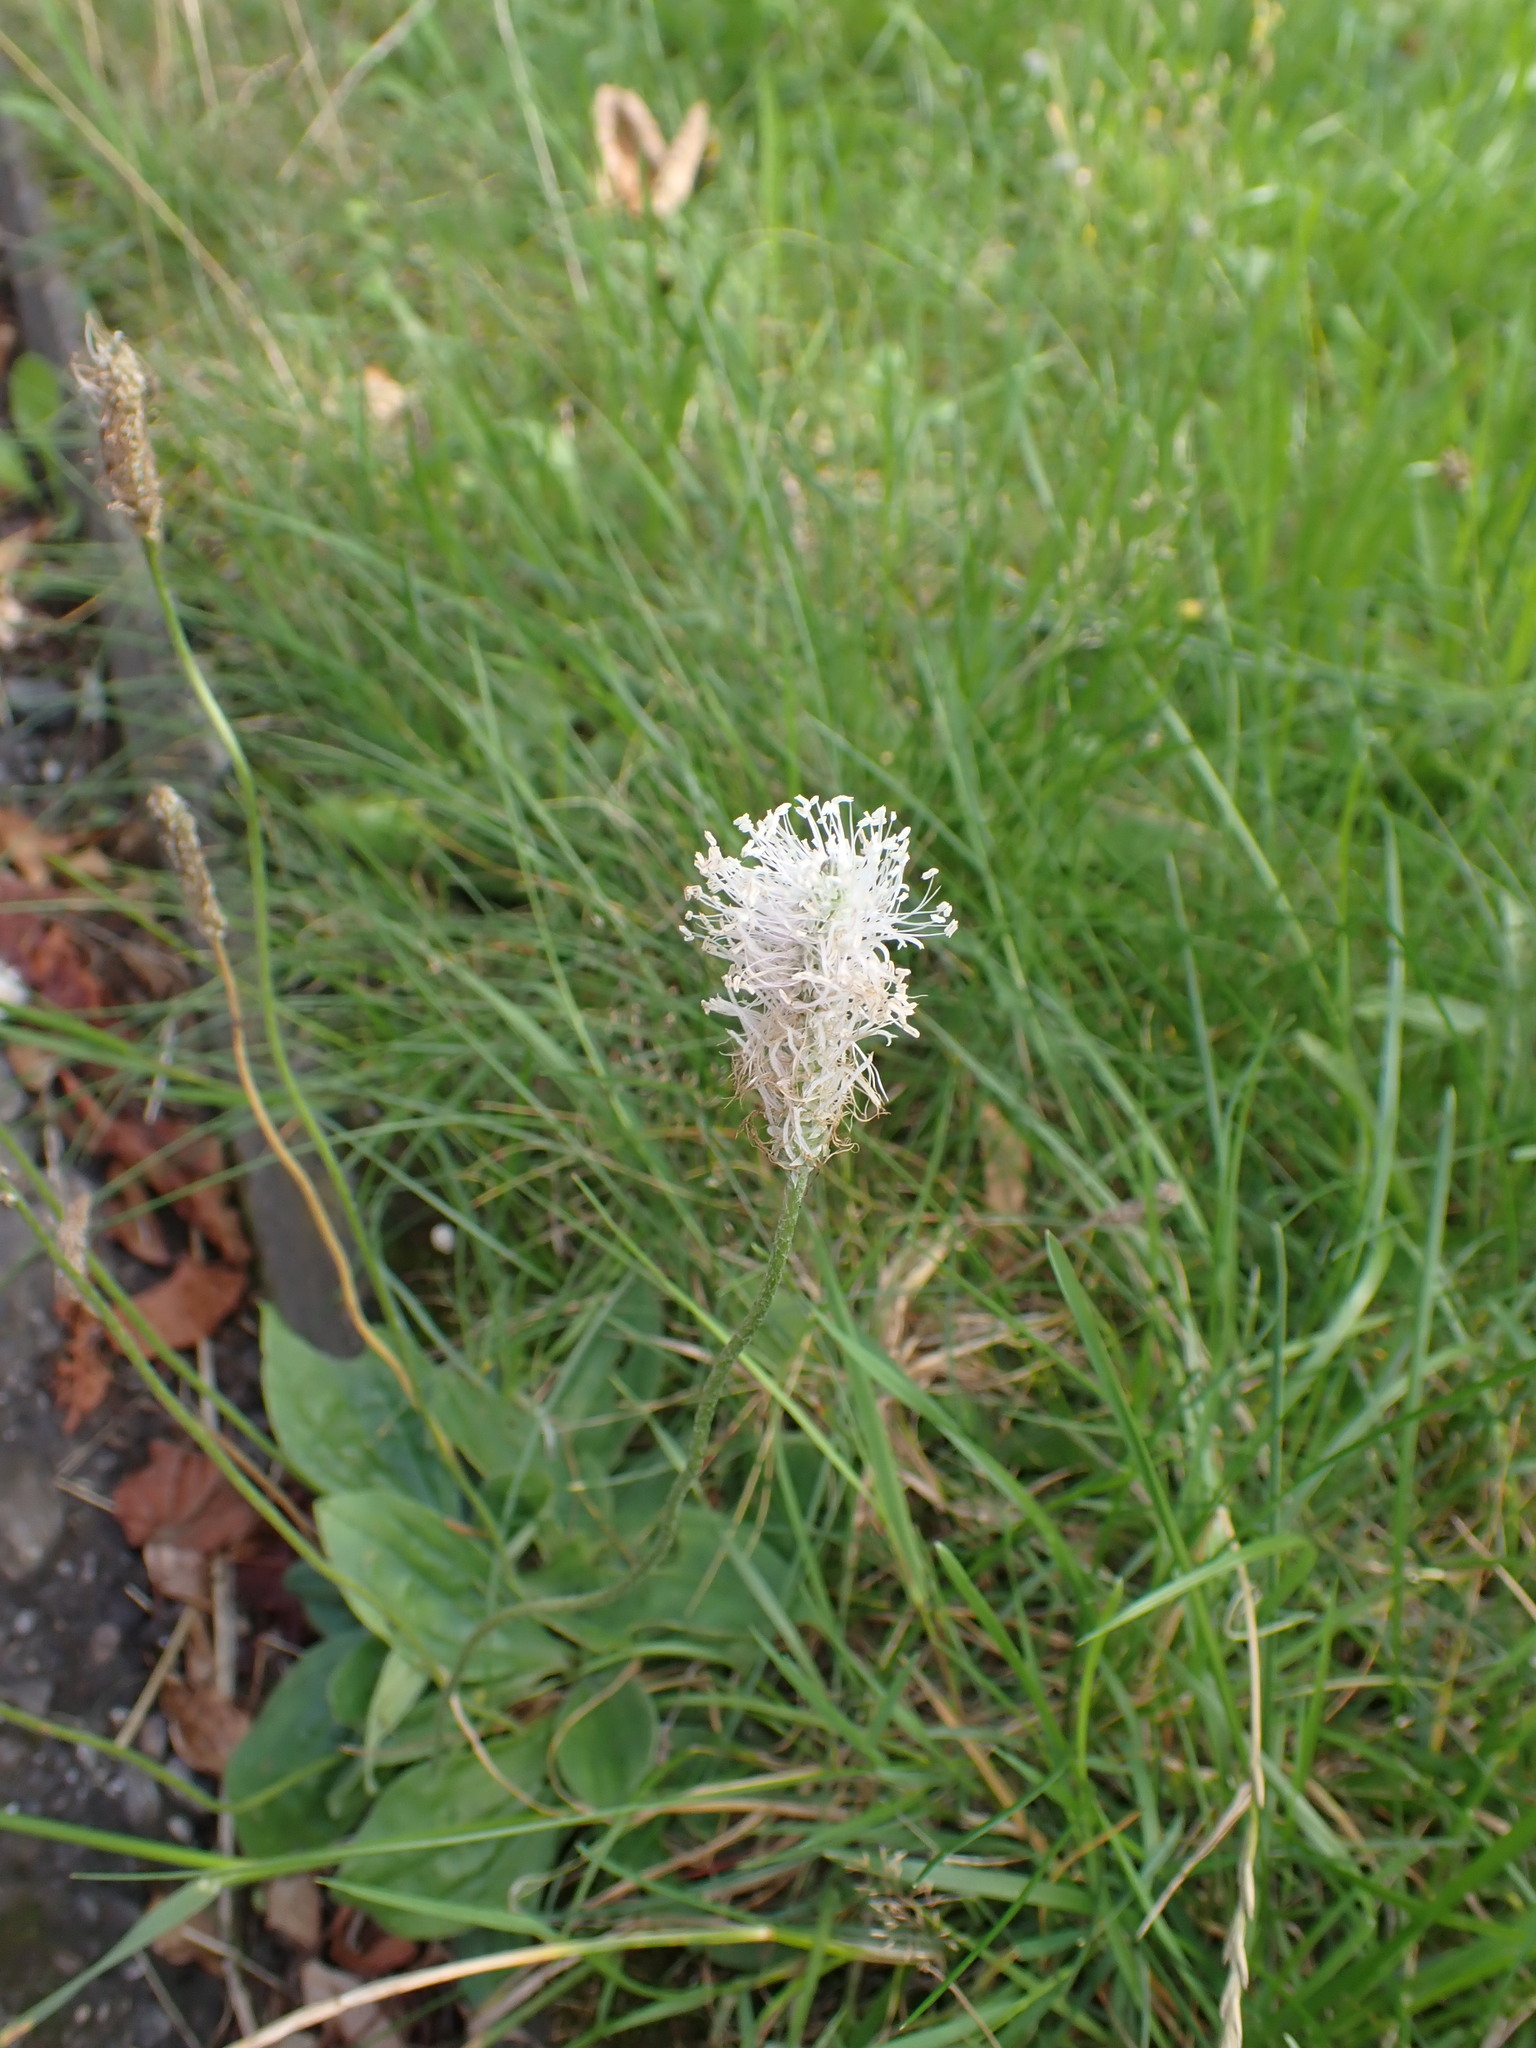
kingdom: Plantae
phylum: Tracheophyta
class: Magnoliopsida
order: Lamiales
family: Plantaginaceae
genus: Plantago
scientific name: Plantago media
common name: Hoary plantain
